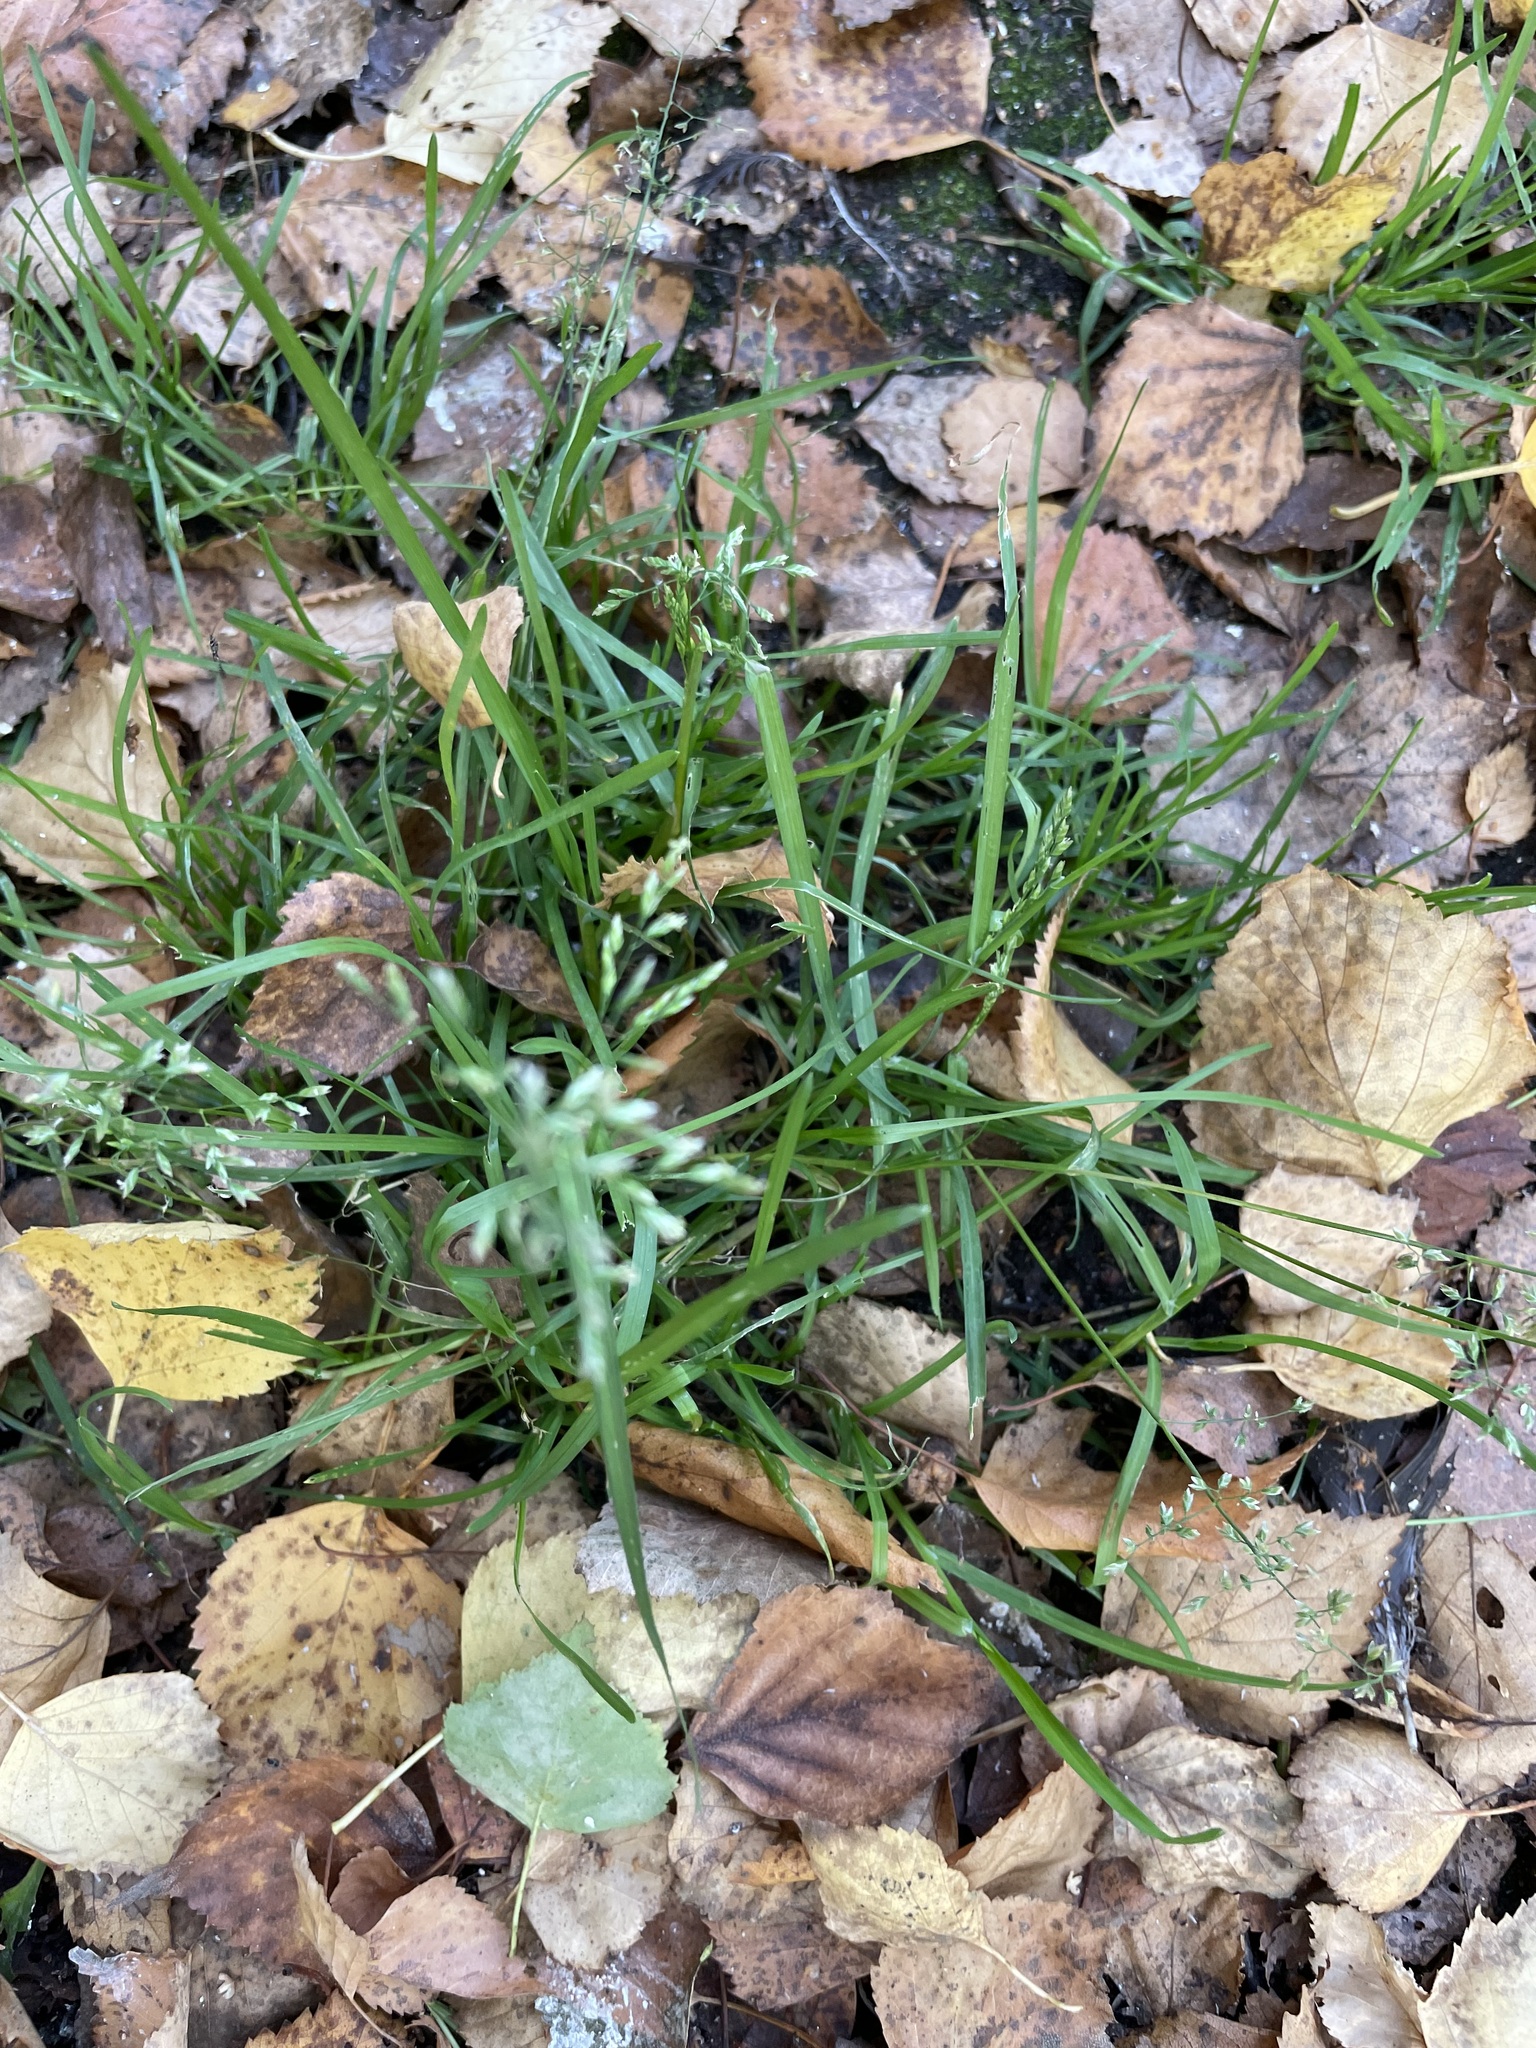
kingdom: Plantae
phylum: Tracheophyta
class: Liliopsida
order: Poales
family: Poaceae
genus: Poa
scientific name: Poa annua
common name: Annual bluegrass
